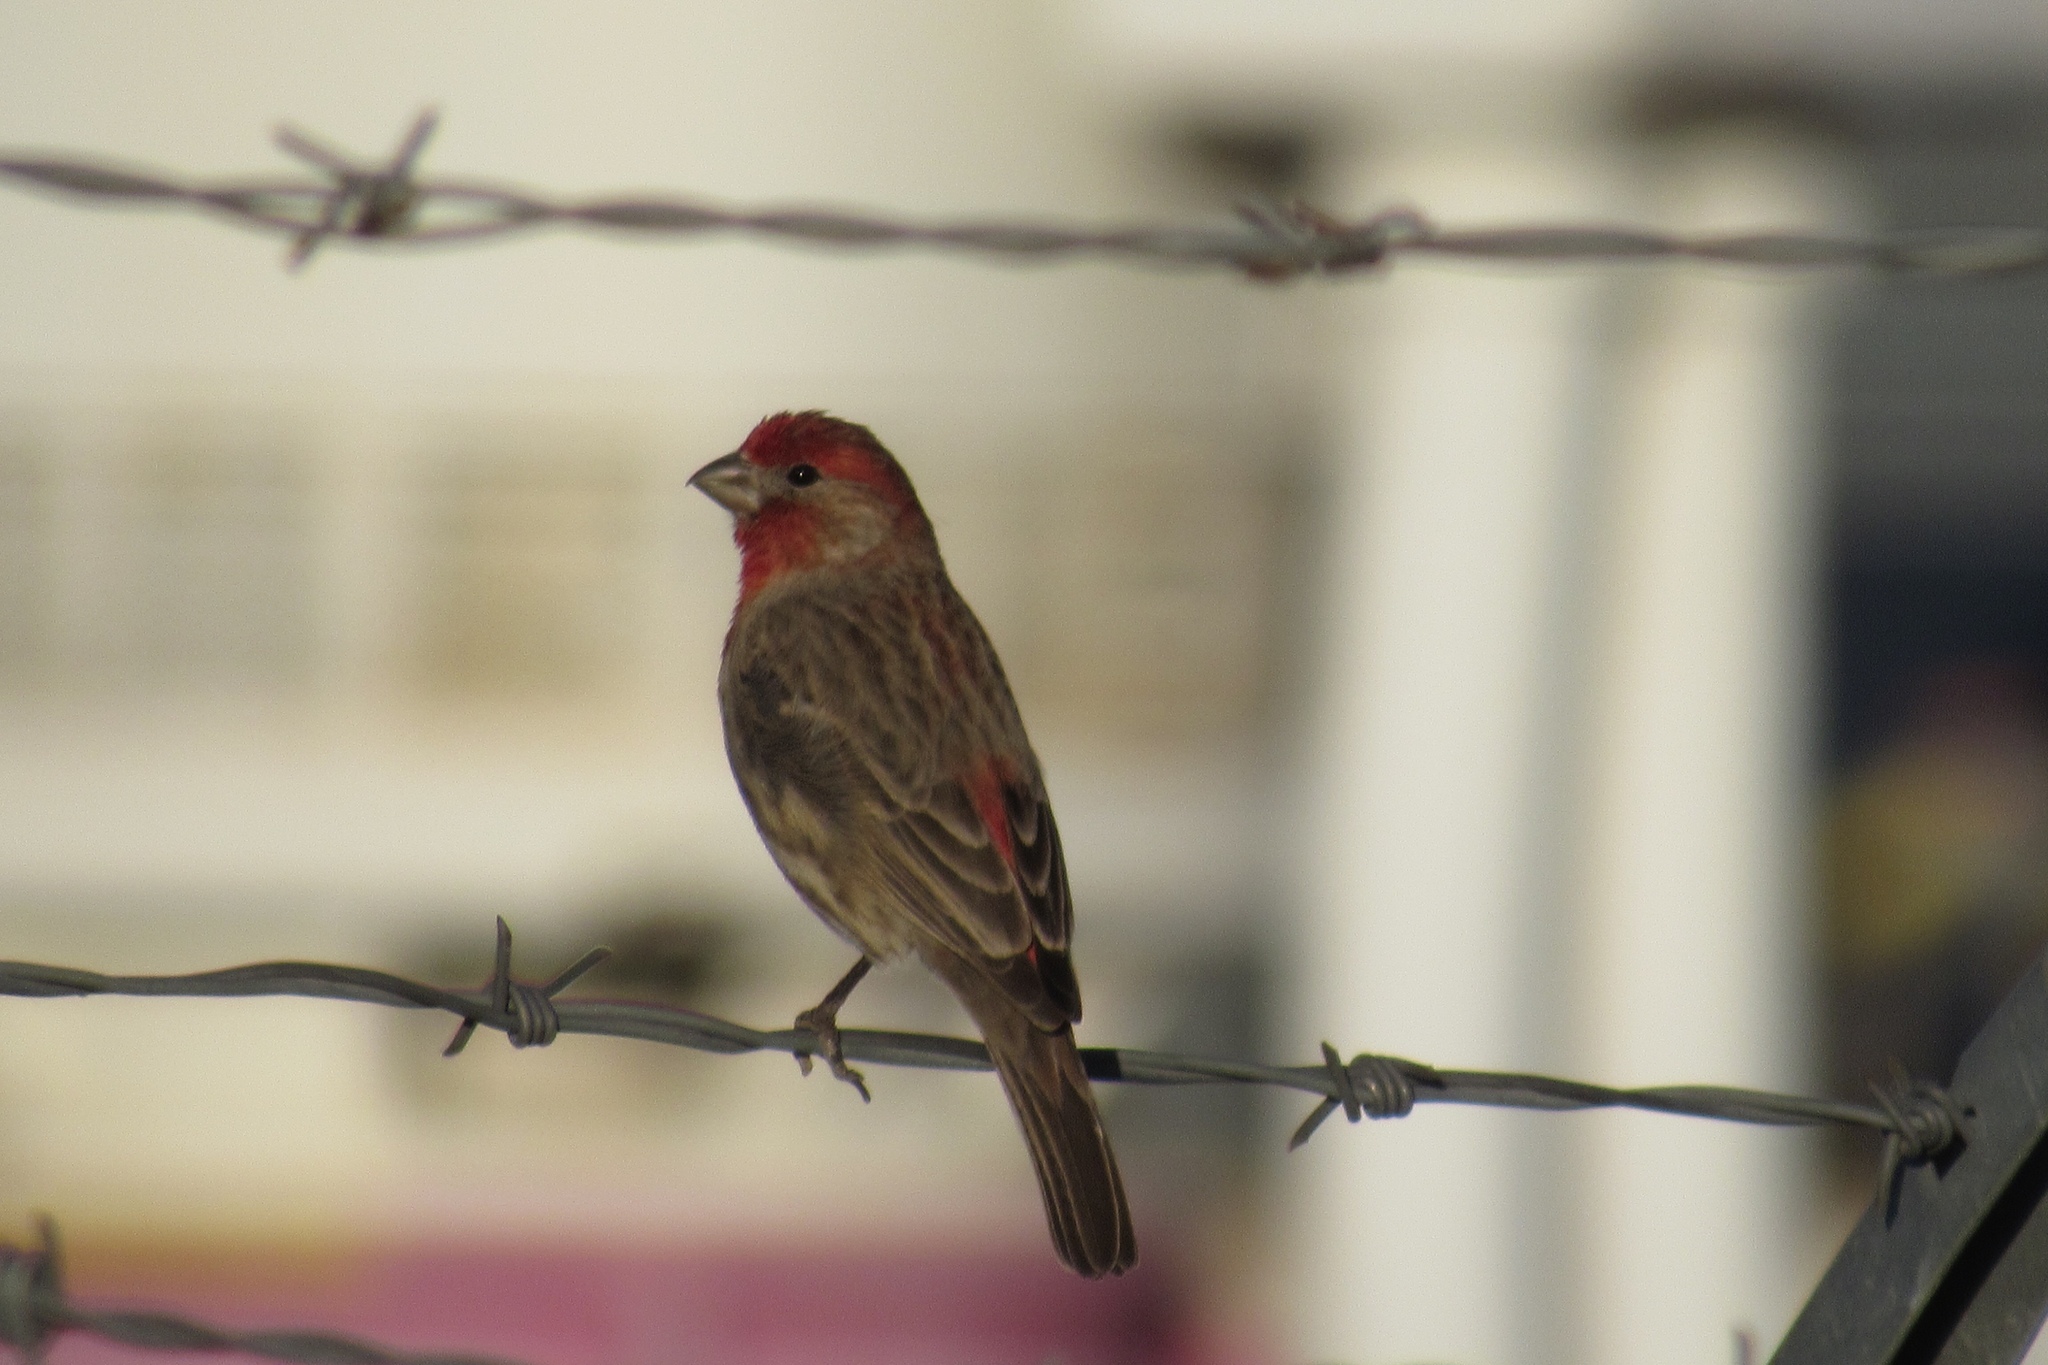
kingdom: Animalia
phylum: Chordata
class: Aves
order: Passeriformes
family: Fringillidae
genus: Haemorhous
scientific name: Haemorhous mexicanus
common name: House finch
